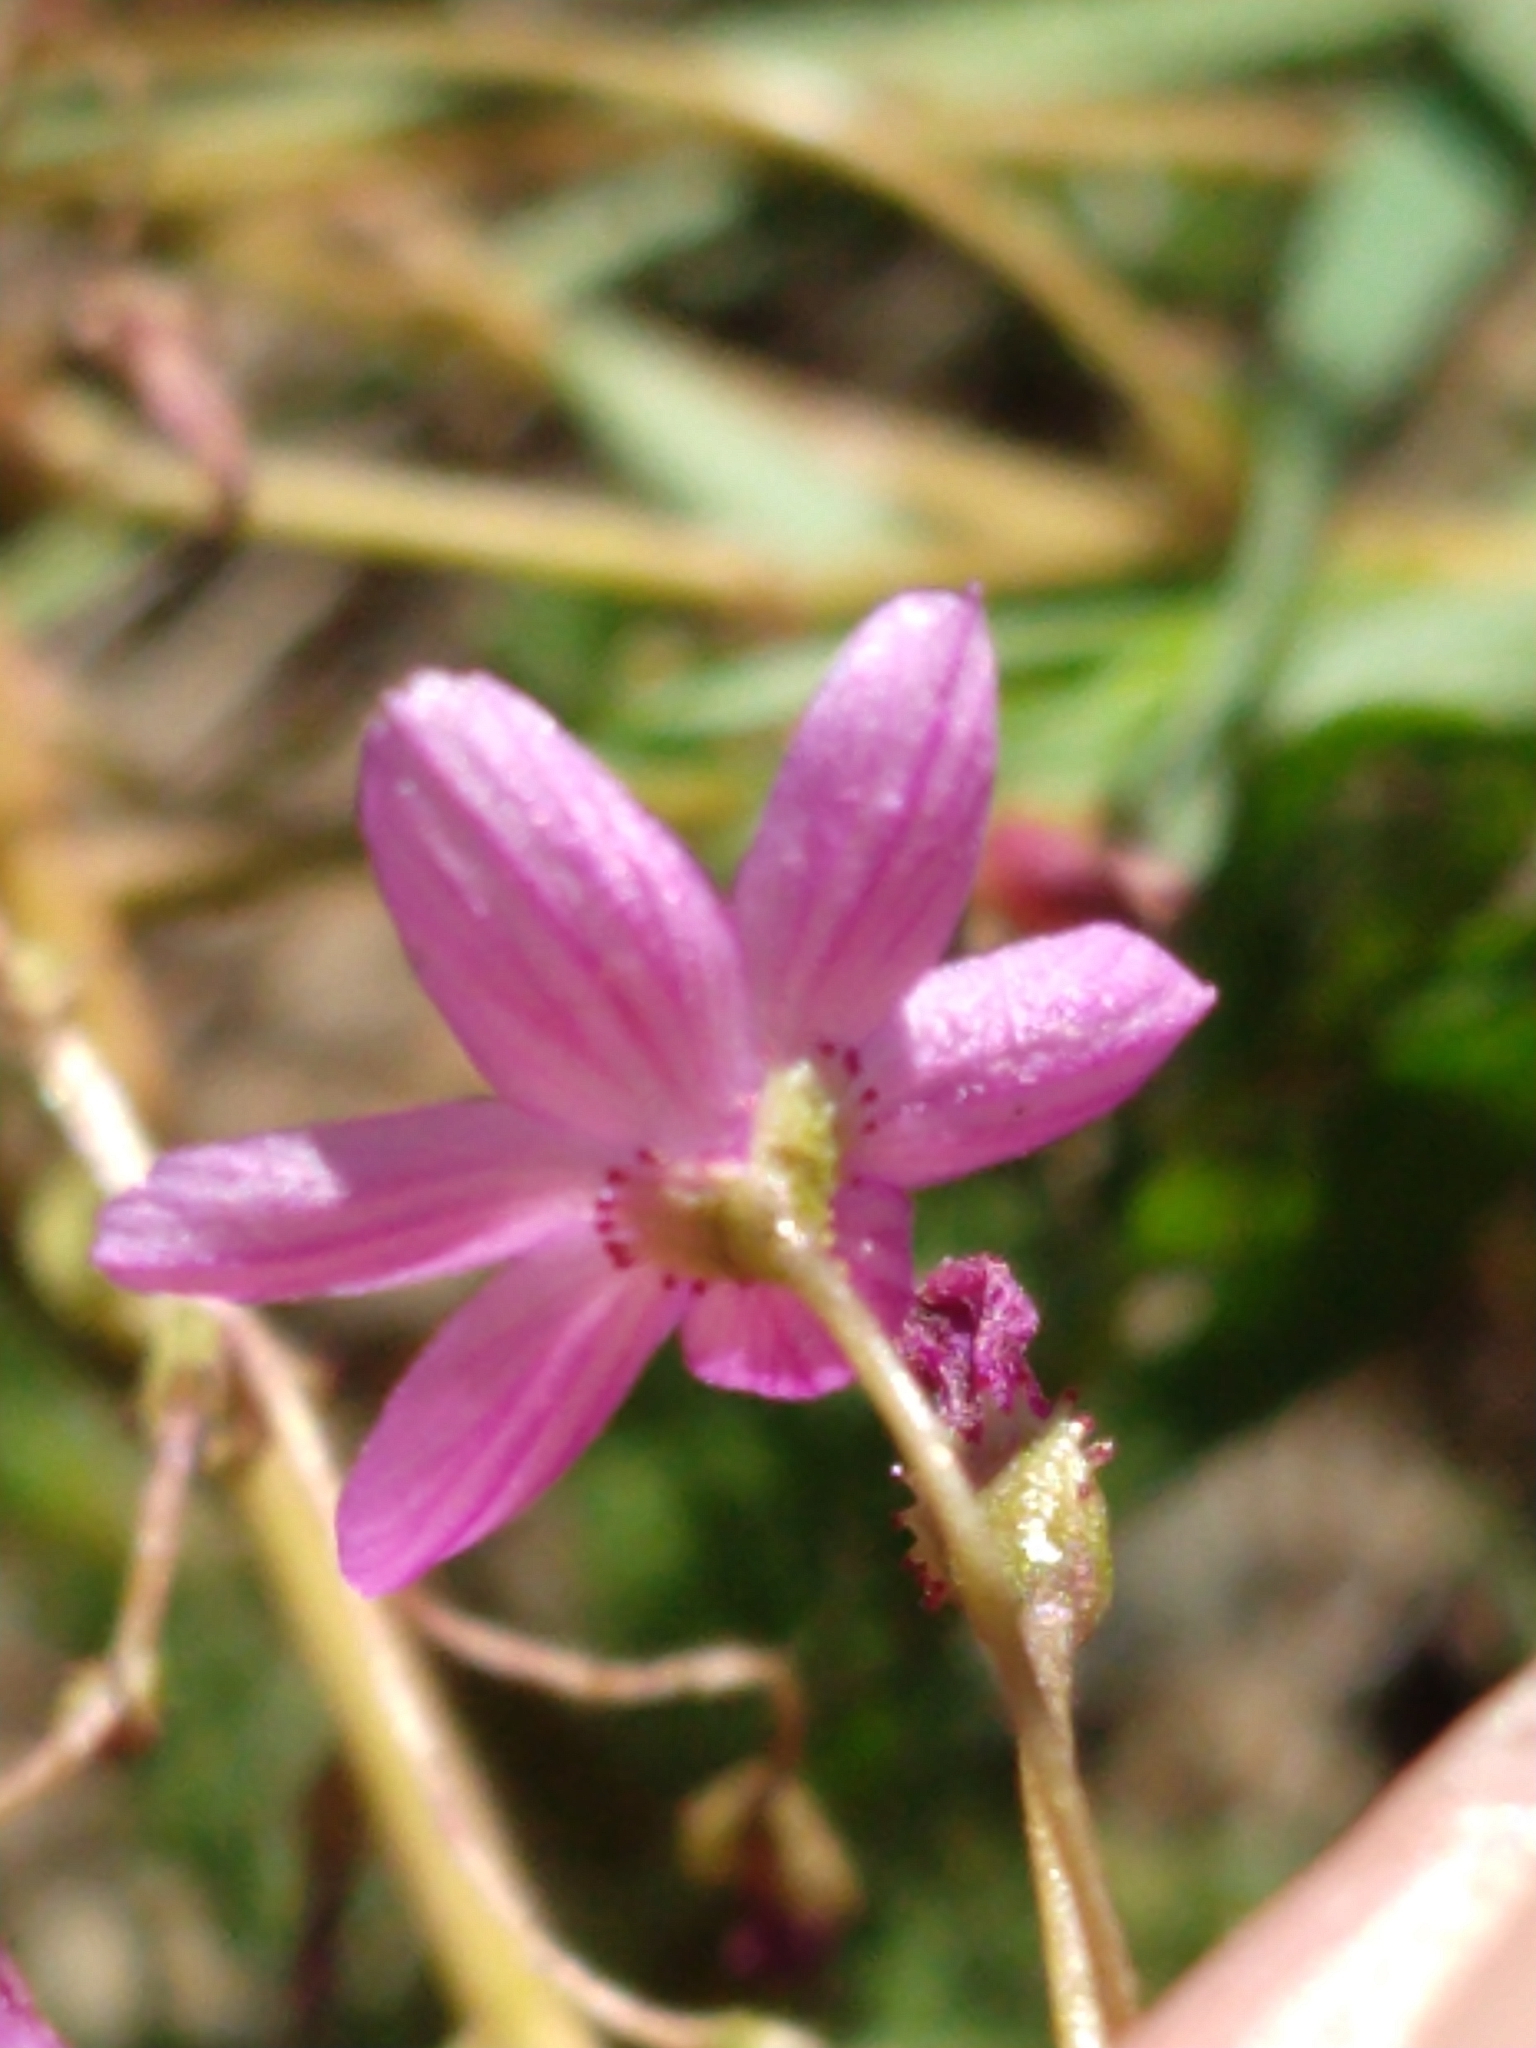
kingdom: Plantae
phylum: Tracheophyta
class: Magnoliopsida
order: Caryophyllales
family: Montiaceae
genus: Lewisia
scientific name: Lewisia leeana
